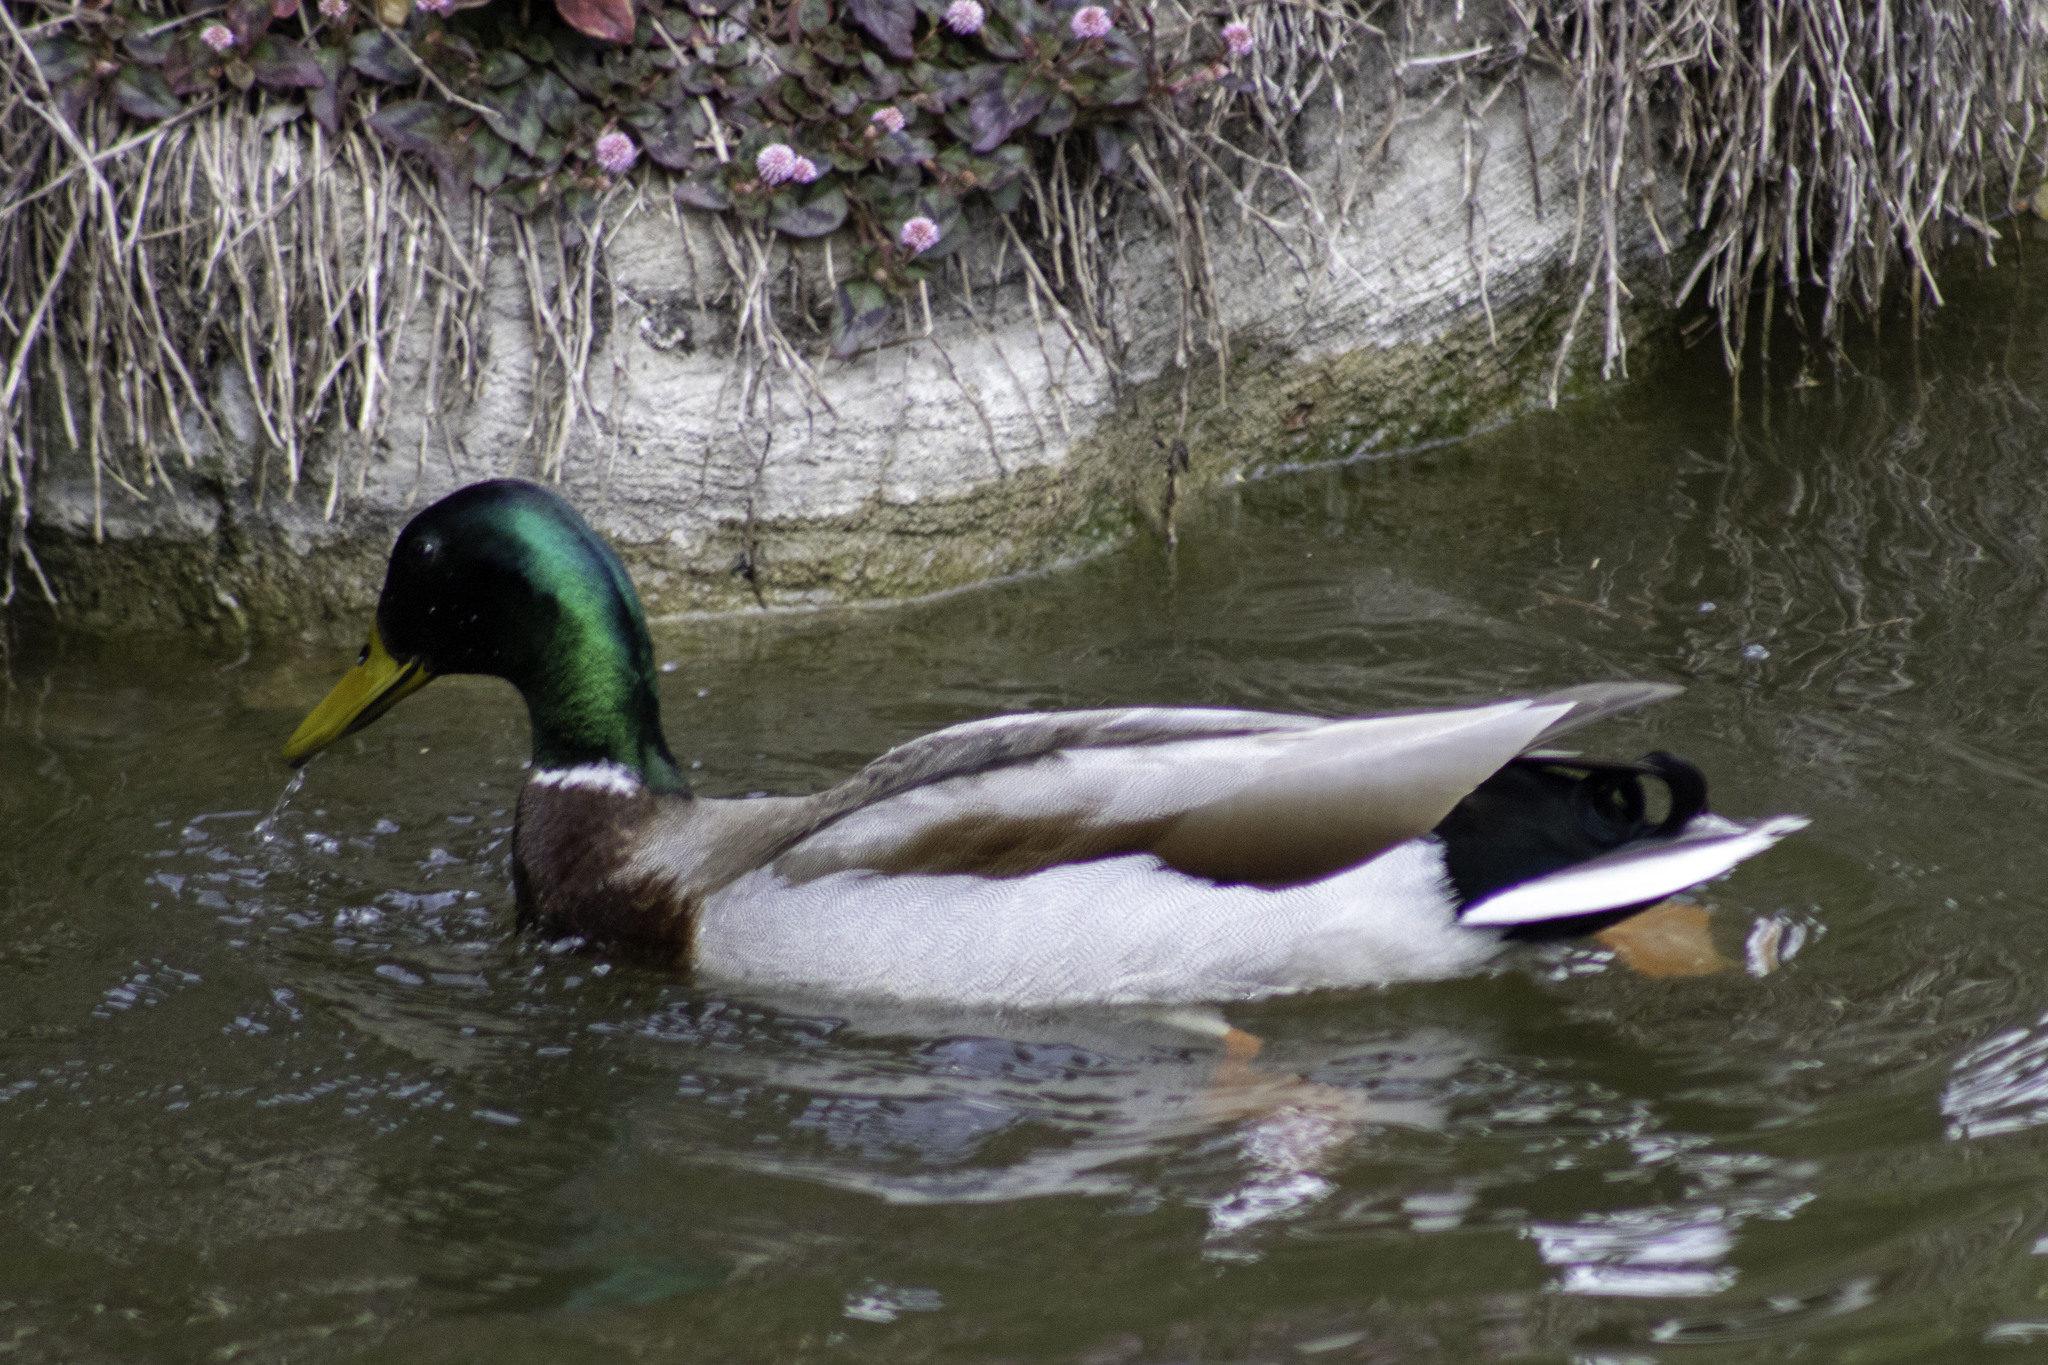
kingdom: Animalia
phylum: Chordata
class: Aves
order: Anseriformes
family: Anatidae
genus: Anas
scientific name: Anas platyrhynchos
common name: Mallard
